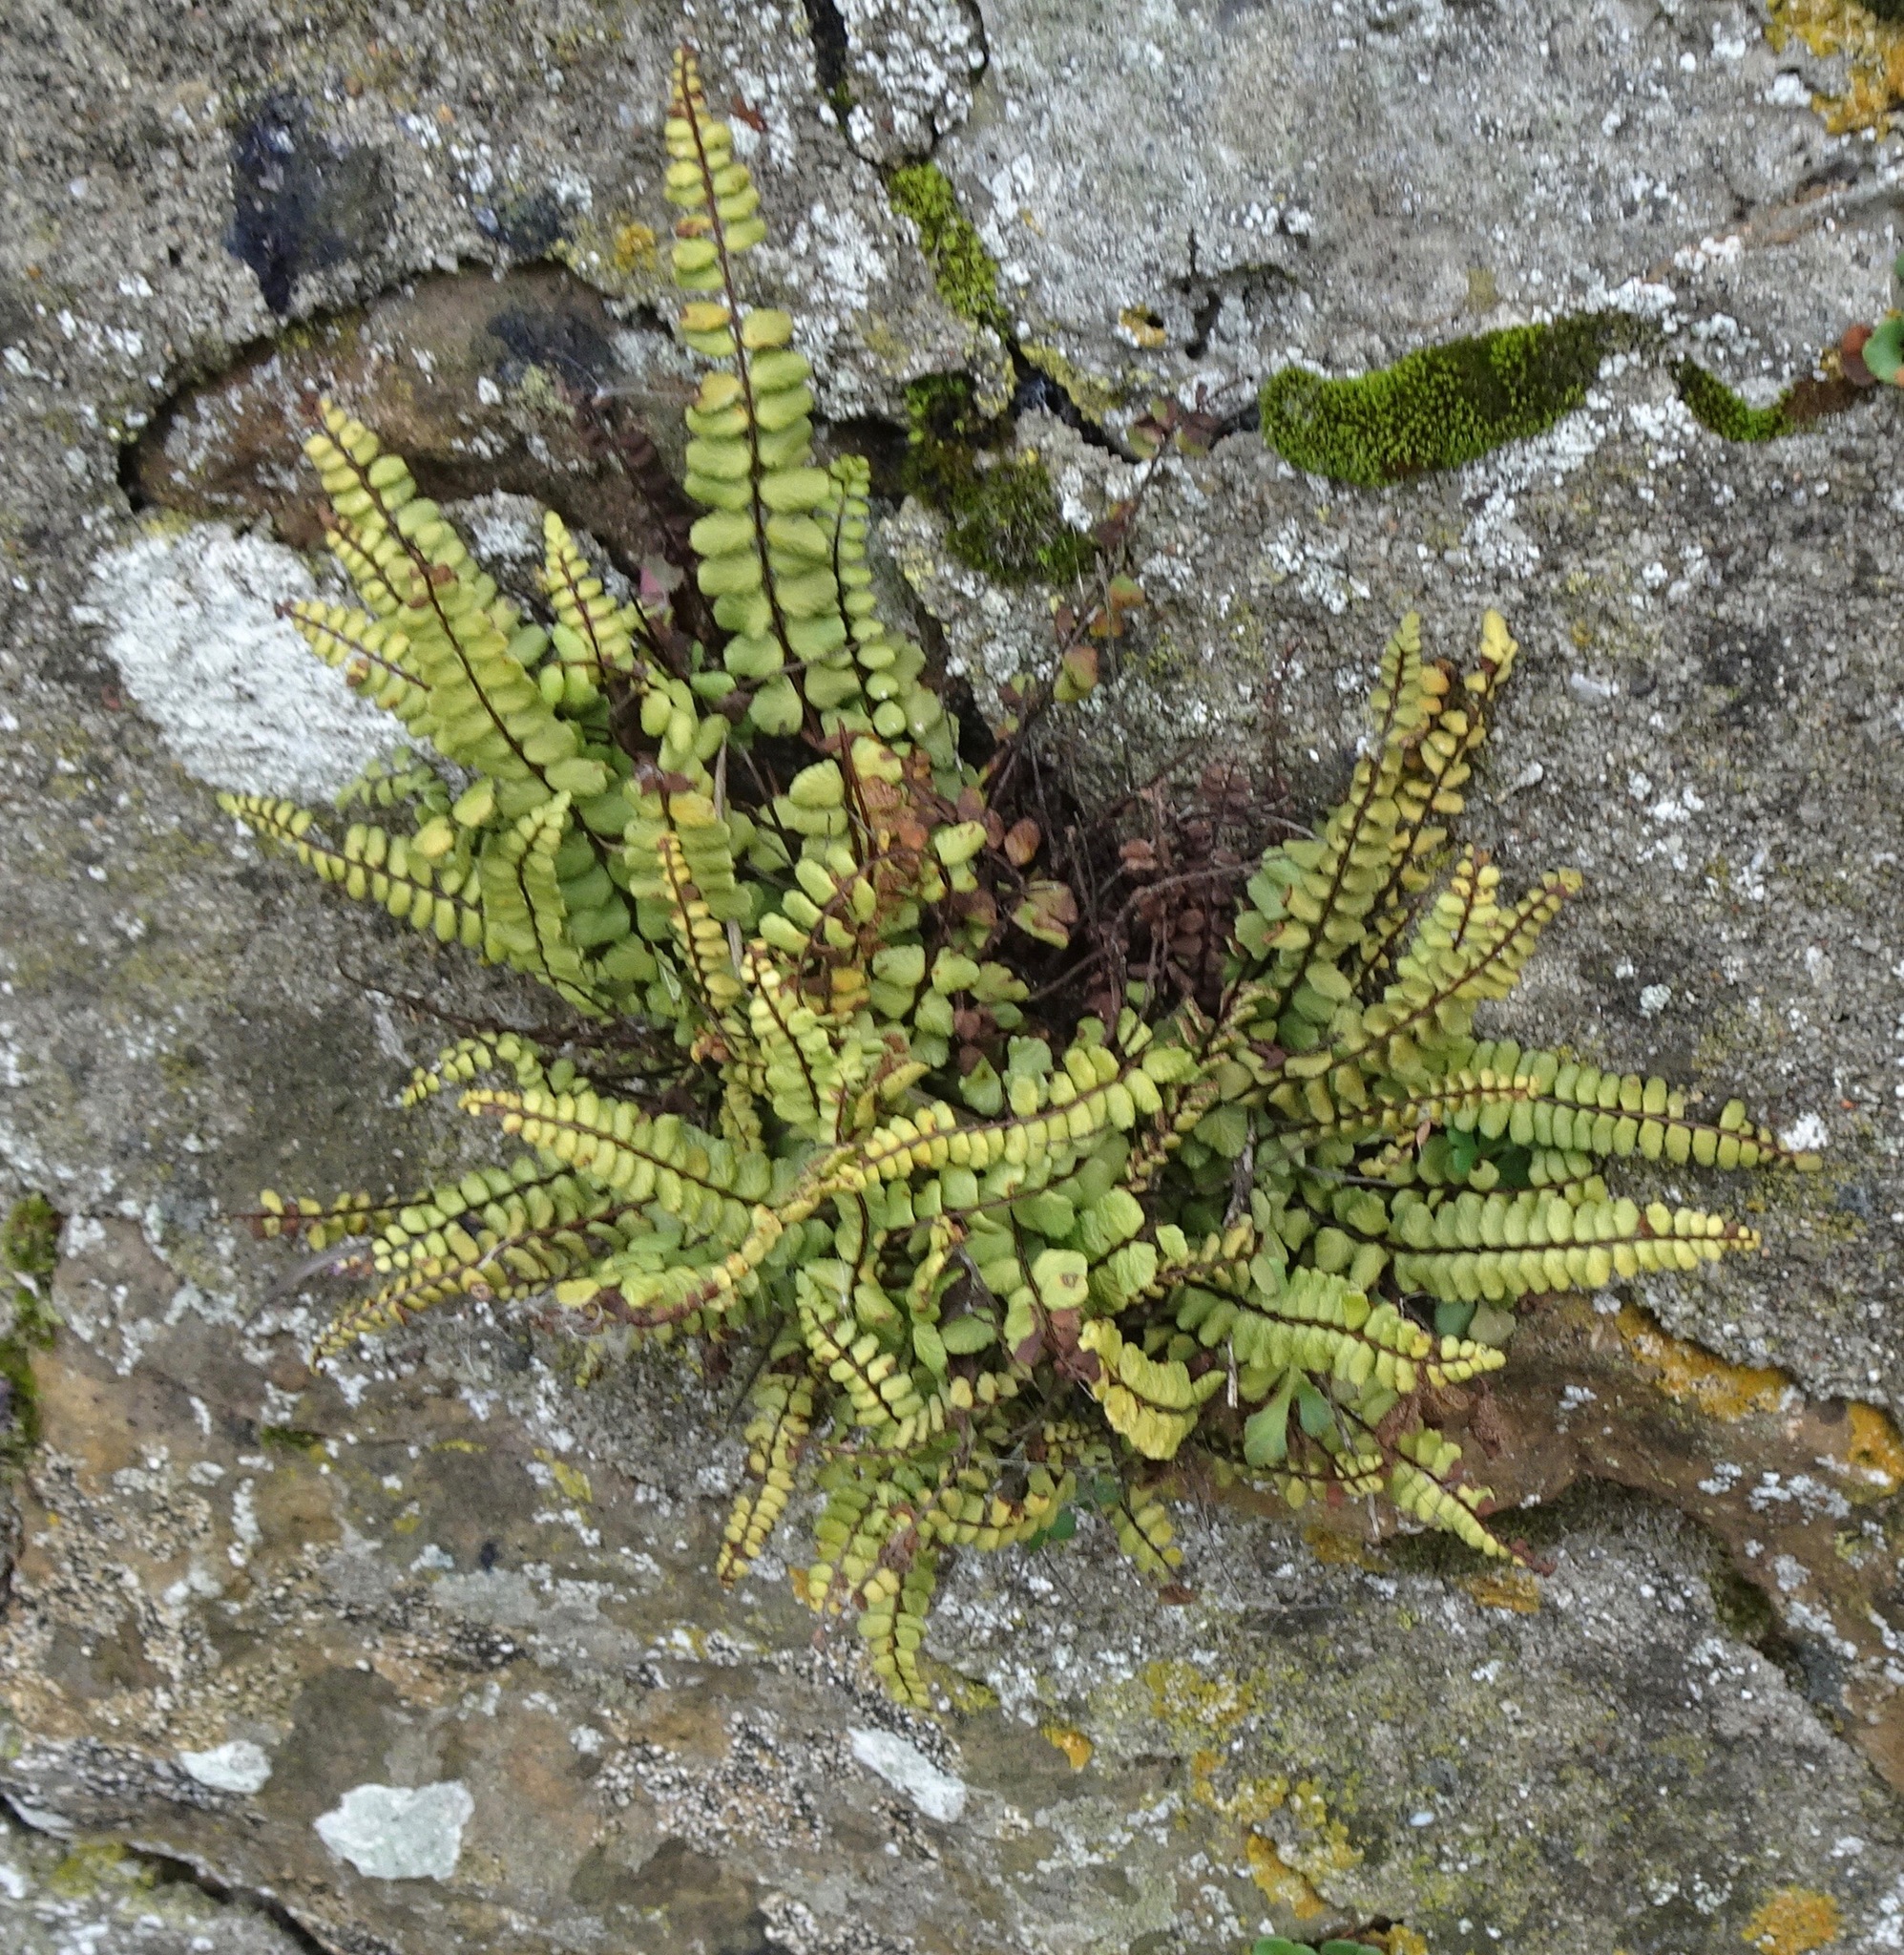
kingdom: Plantae
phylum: Tracheophyta
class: Polypodiopsida
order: Polypodiales
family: Aspleniaceae
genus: Asplenium
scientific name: Asplenium trichomanes
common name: Maidenhair spleenwort
